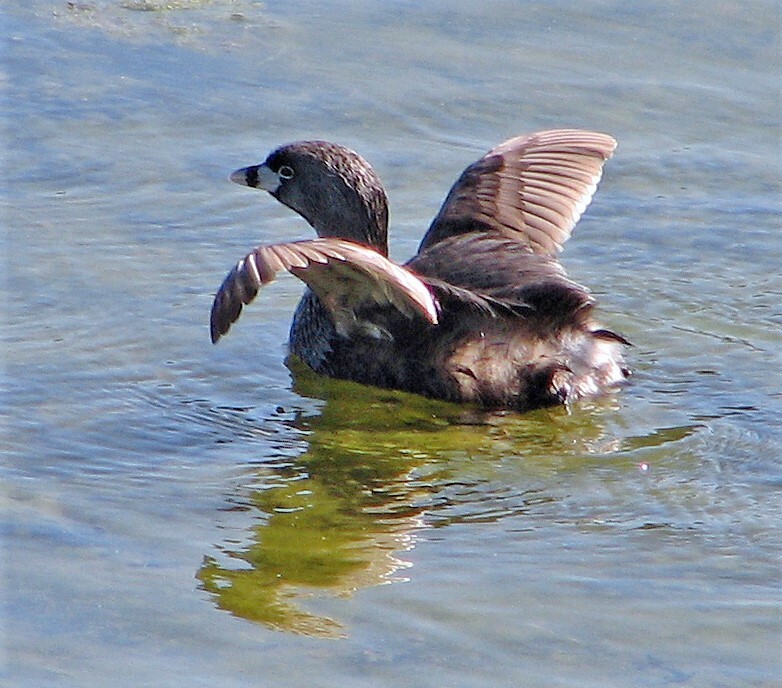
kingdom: Animalia
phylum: Chordata
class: Aves
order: Podicipediformes
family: Podicipedidae
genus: Podilymbus
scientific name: Podilymbus podiceps
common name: Pied-billed grebe
